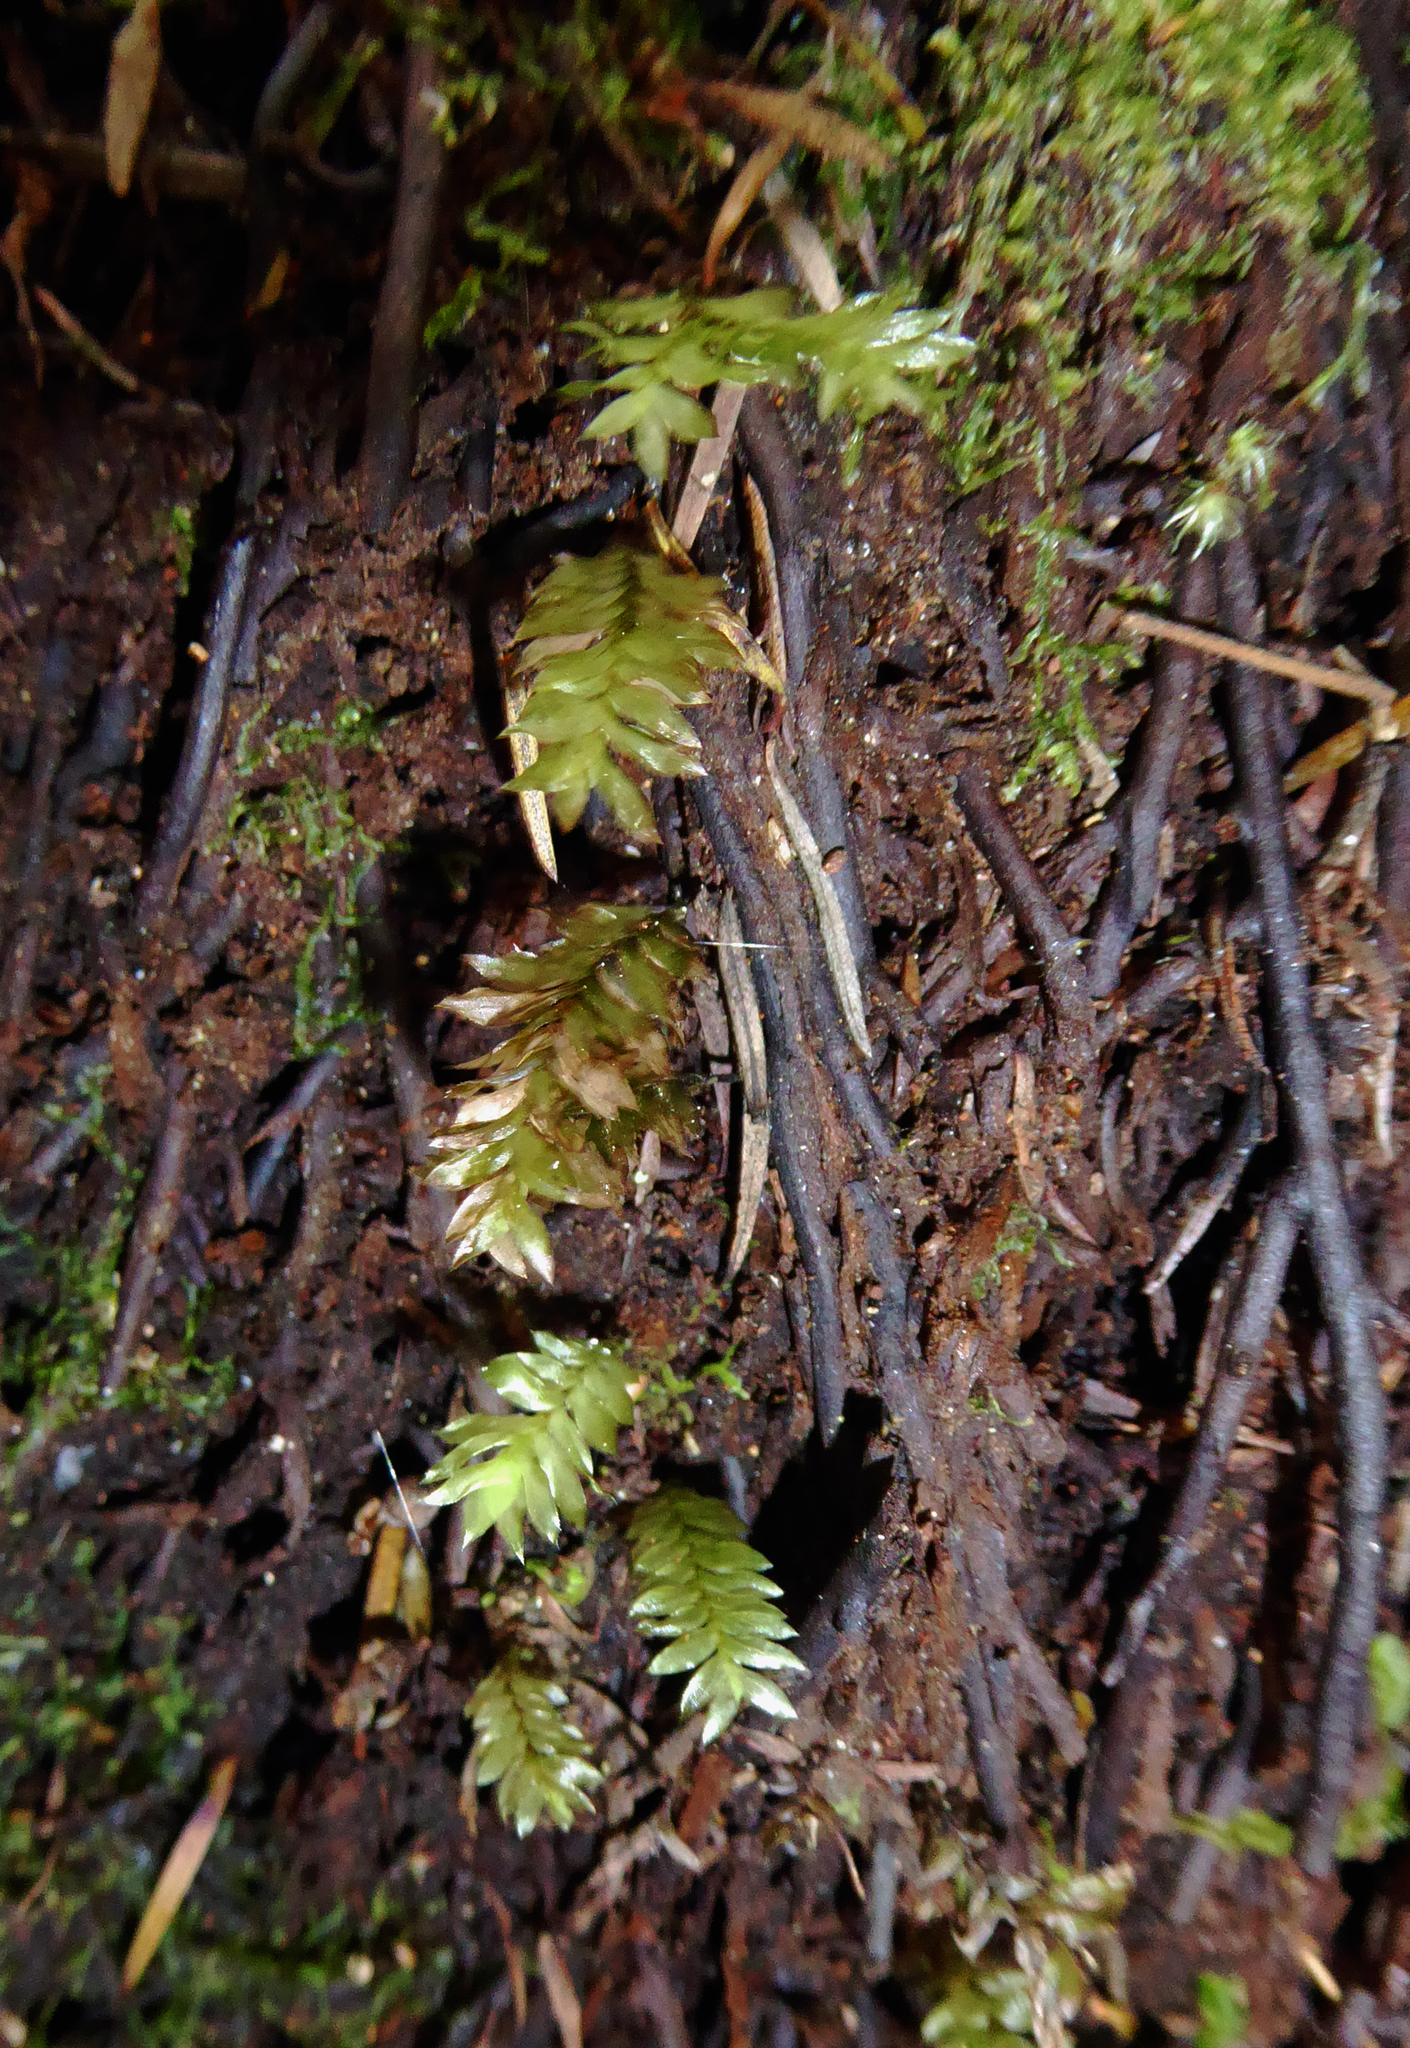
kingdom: Plantae
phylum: Bryophyta
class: Bryopsida
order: Hypopterygiales
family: Hypopterygiaceae
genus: Cyathophorum
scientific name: Cyathophorum bulbosum
